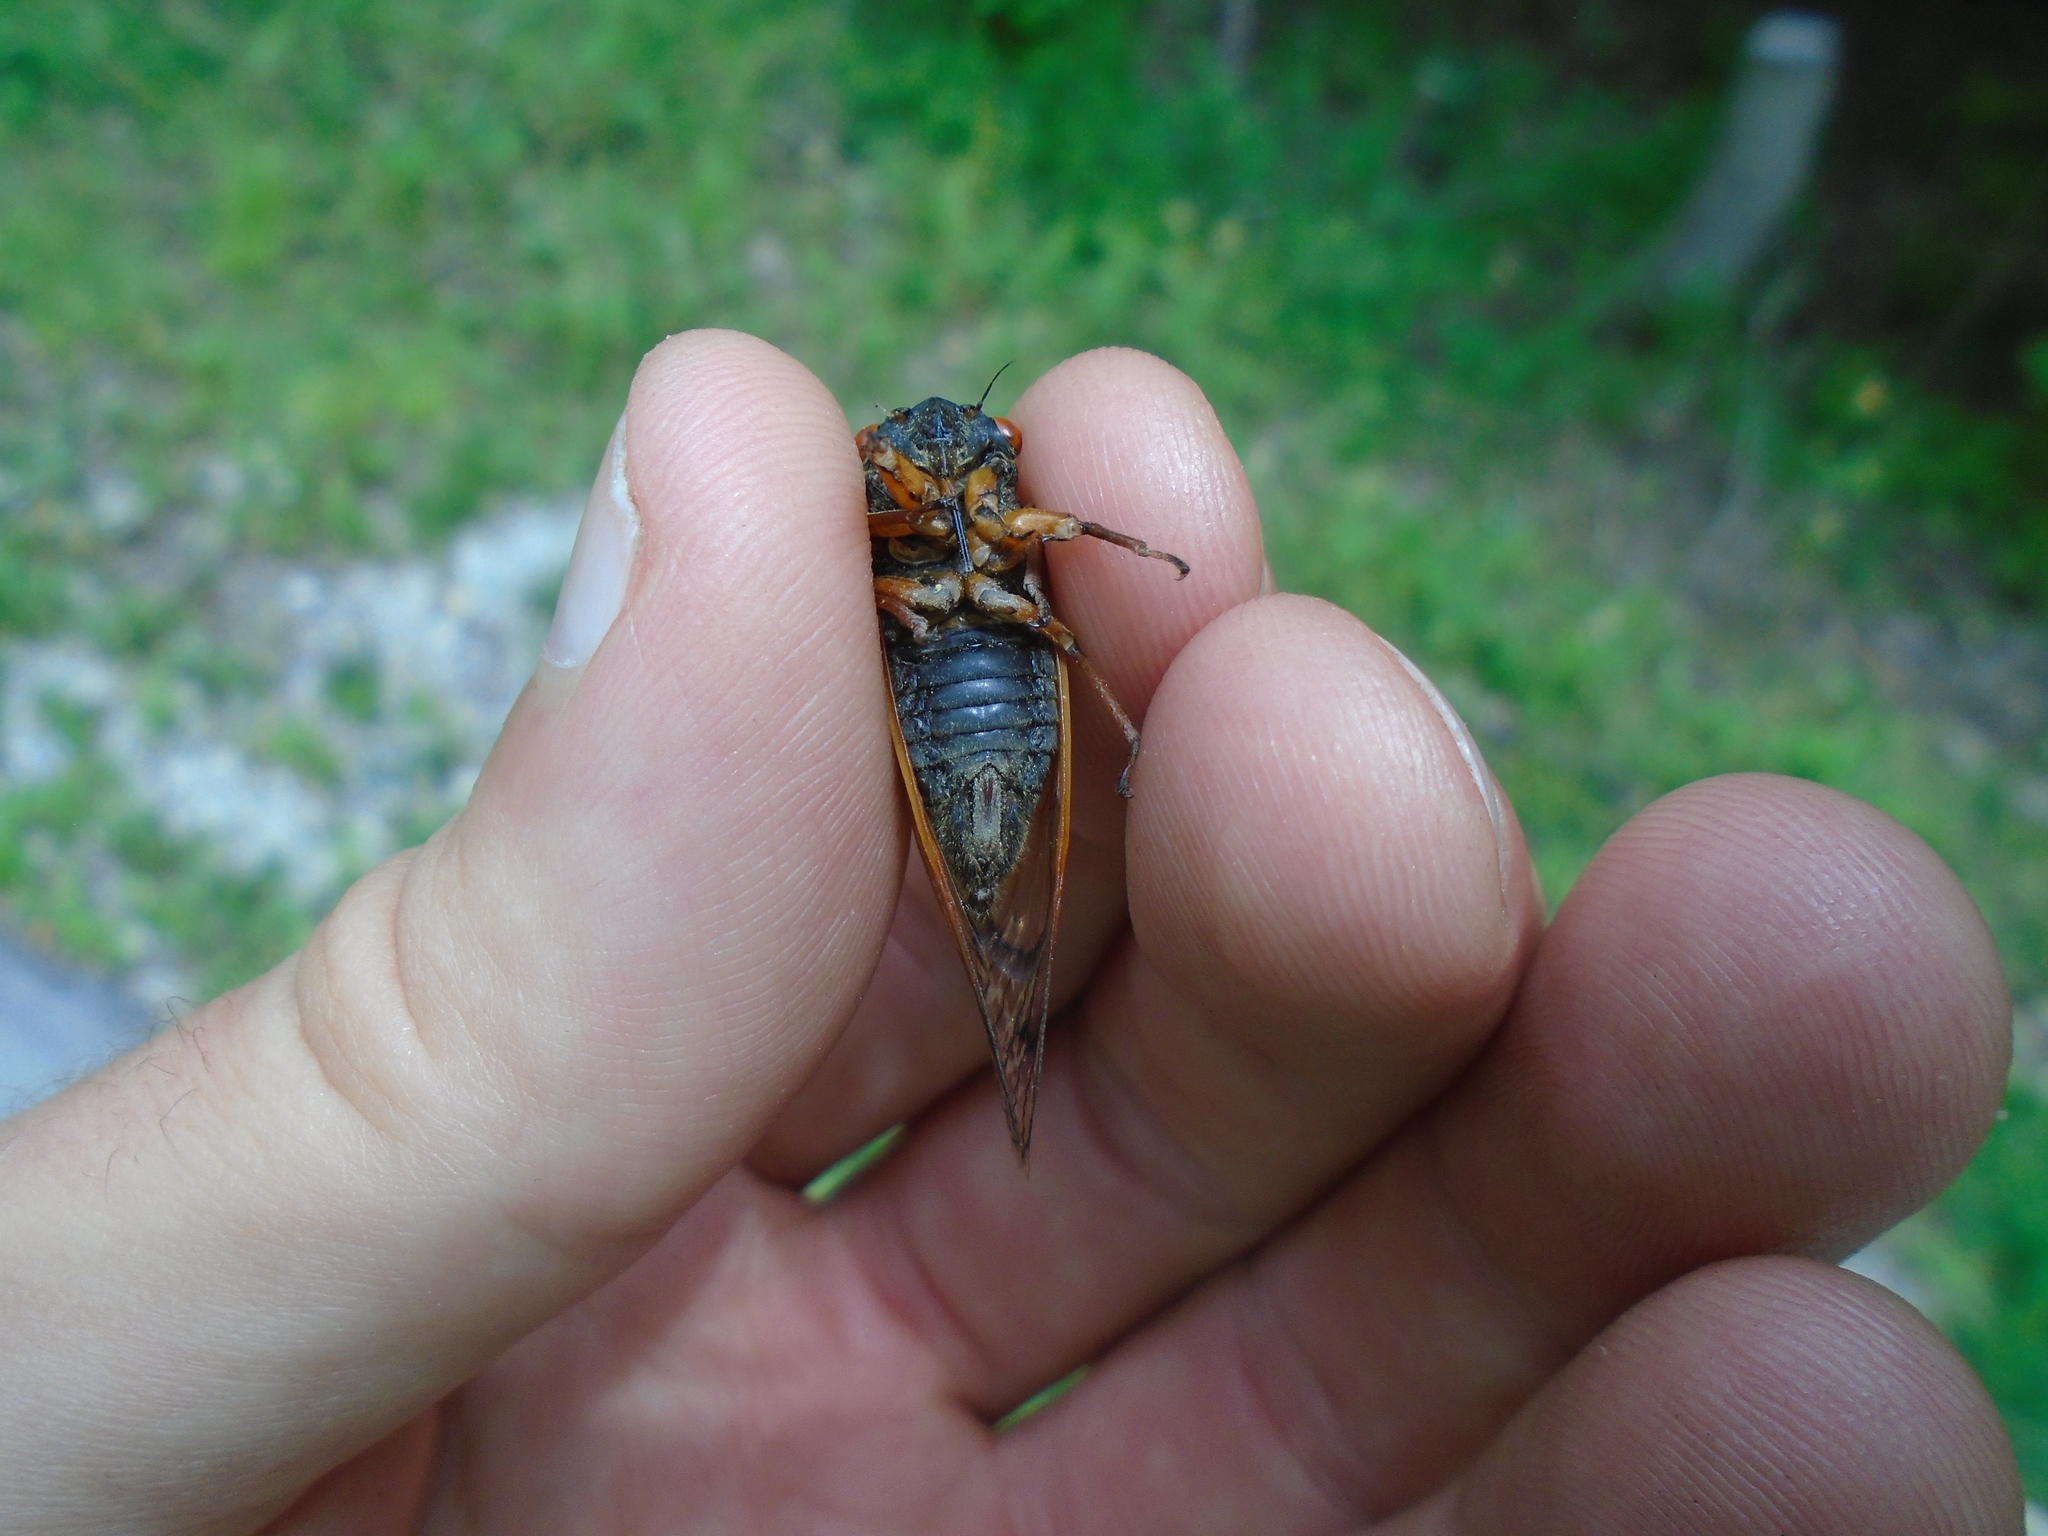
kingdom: Animalia
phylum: Arthropoda
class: Insecta
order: Hemiptera
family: Cicadidae
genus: Magicicada
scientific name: Magicicada cassini
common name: Cassin's 17-year cicada
